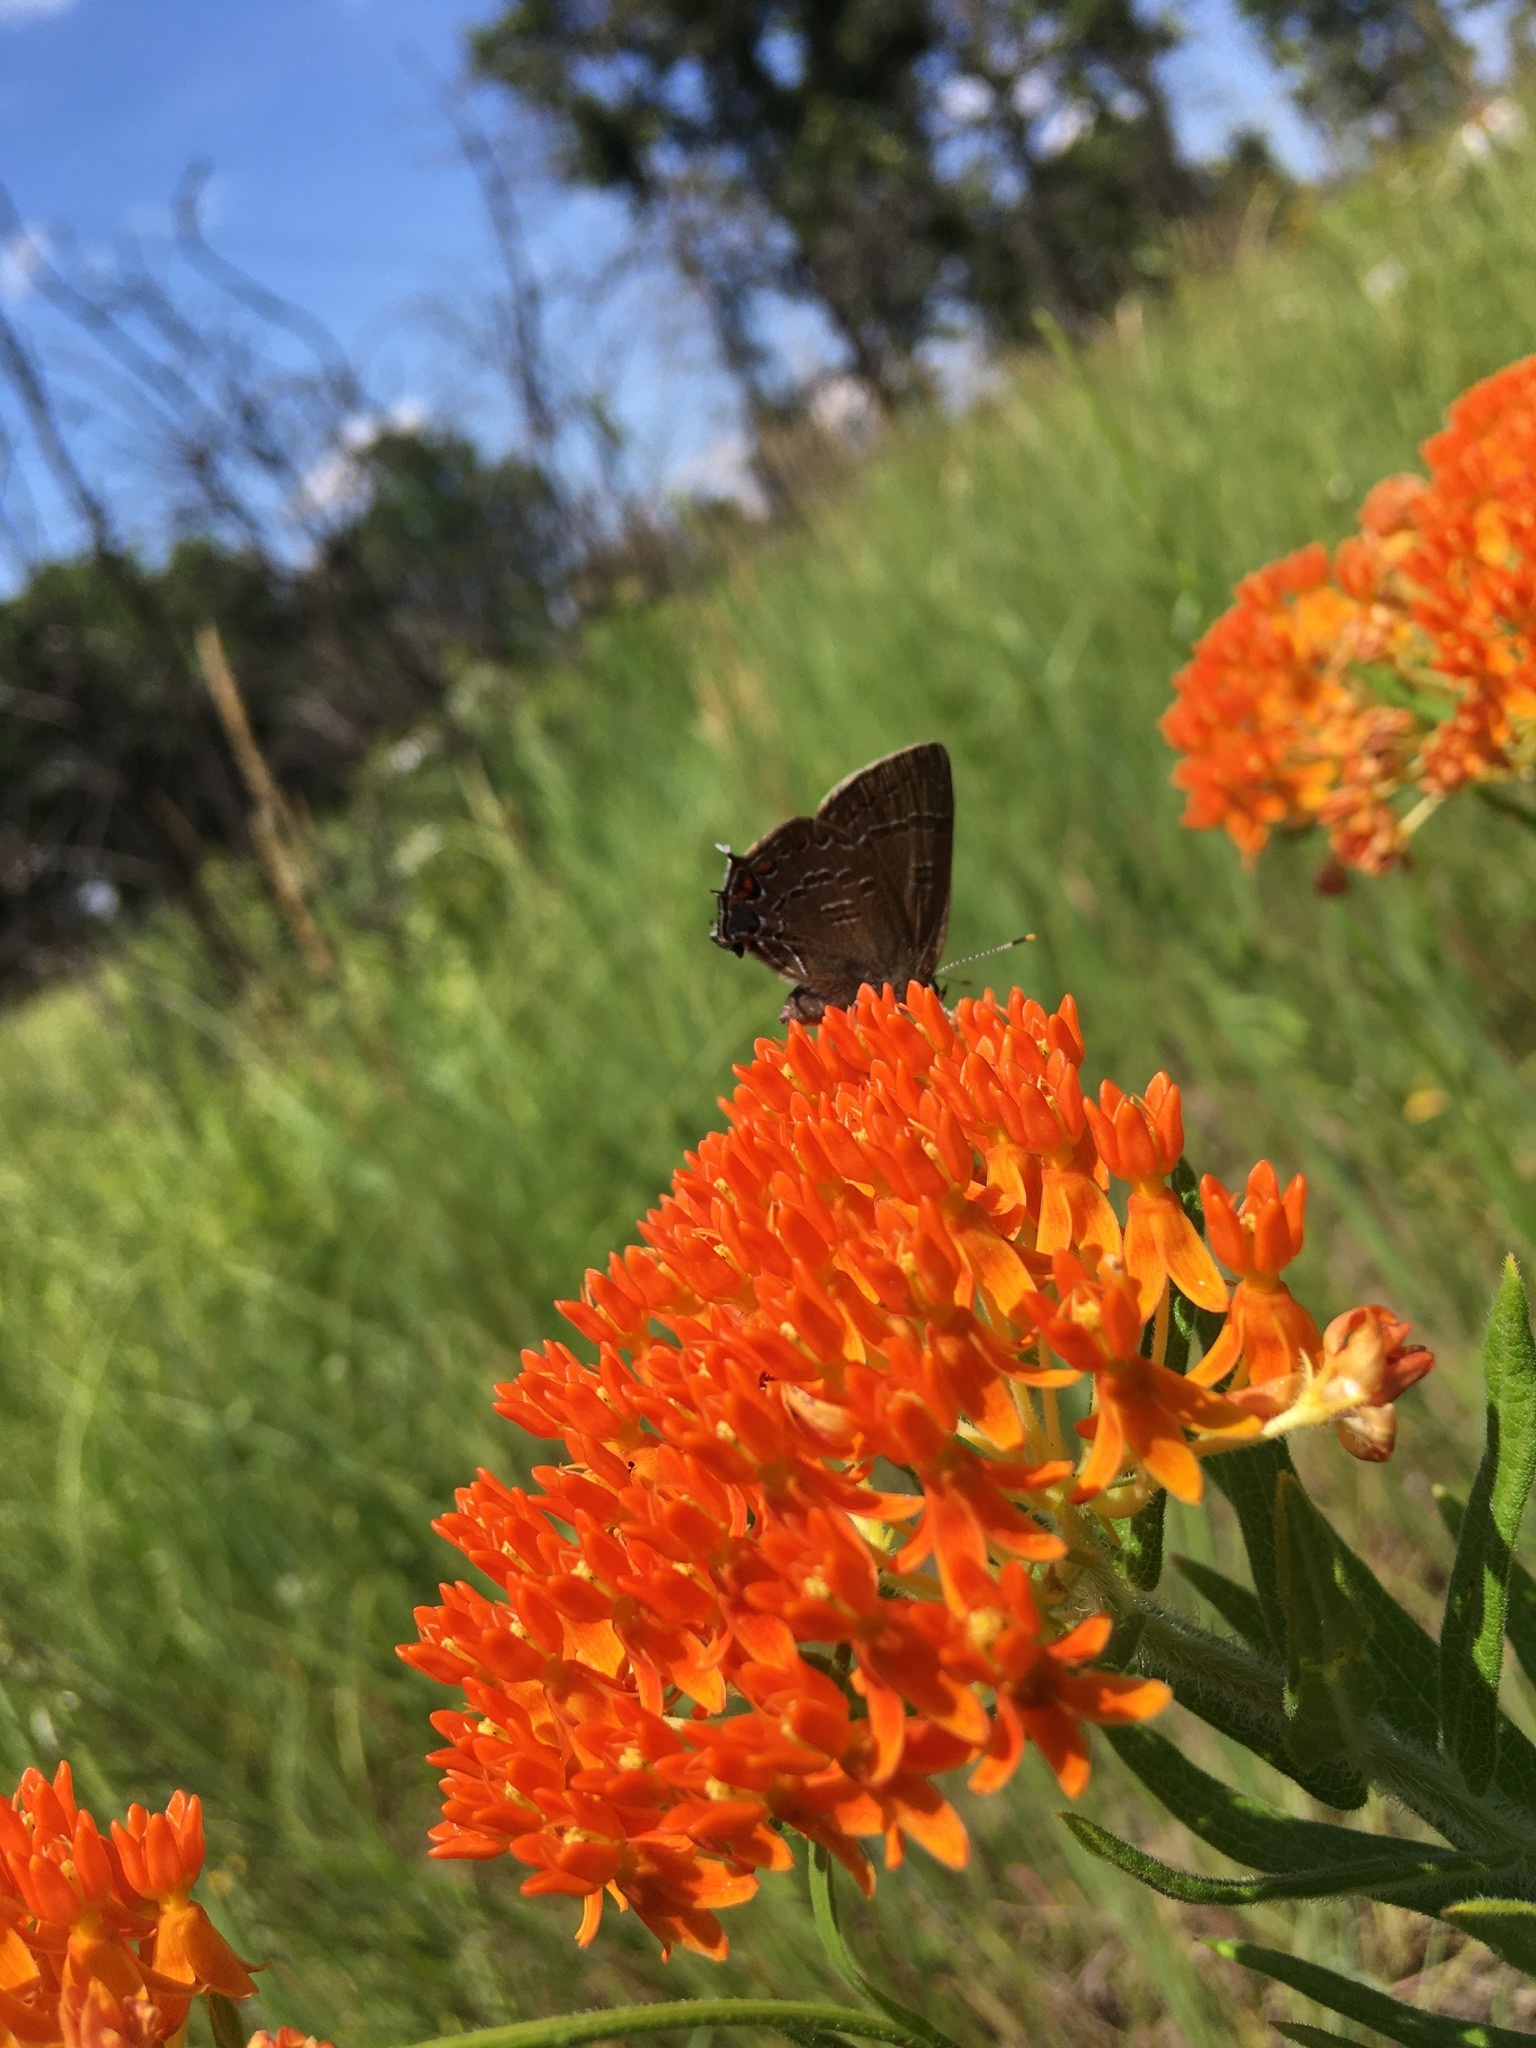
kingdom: Animalia
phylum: Arthropoda
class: Insecta
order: Lepidoptera
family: Lycaenidae
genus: Satyrium
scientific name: Satyrium calanus
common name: Banded hairstreak
